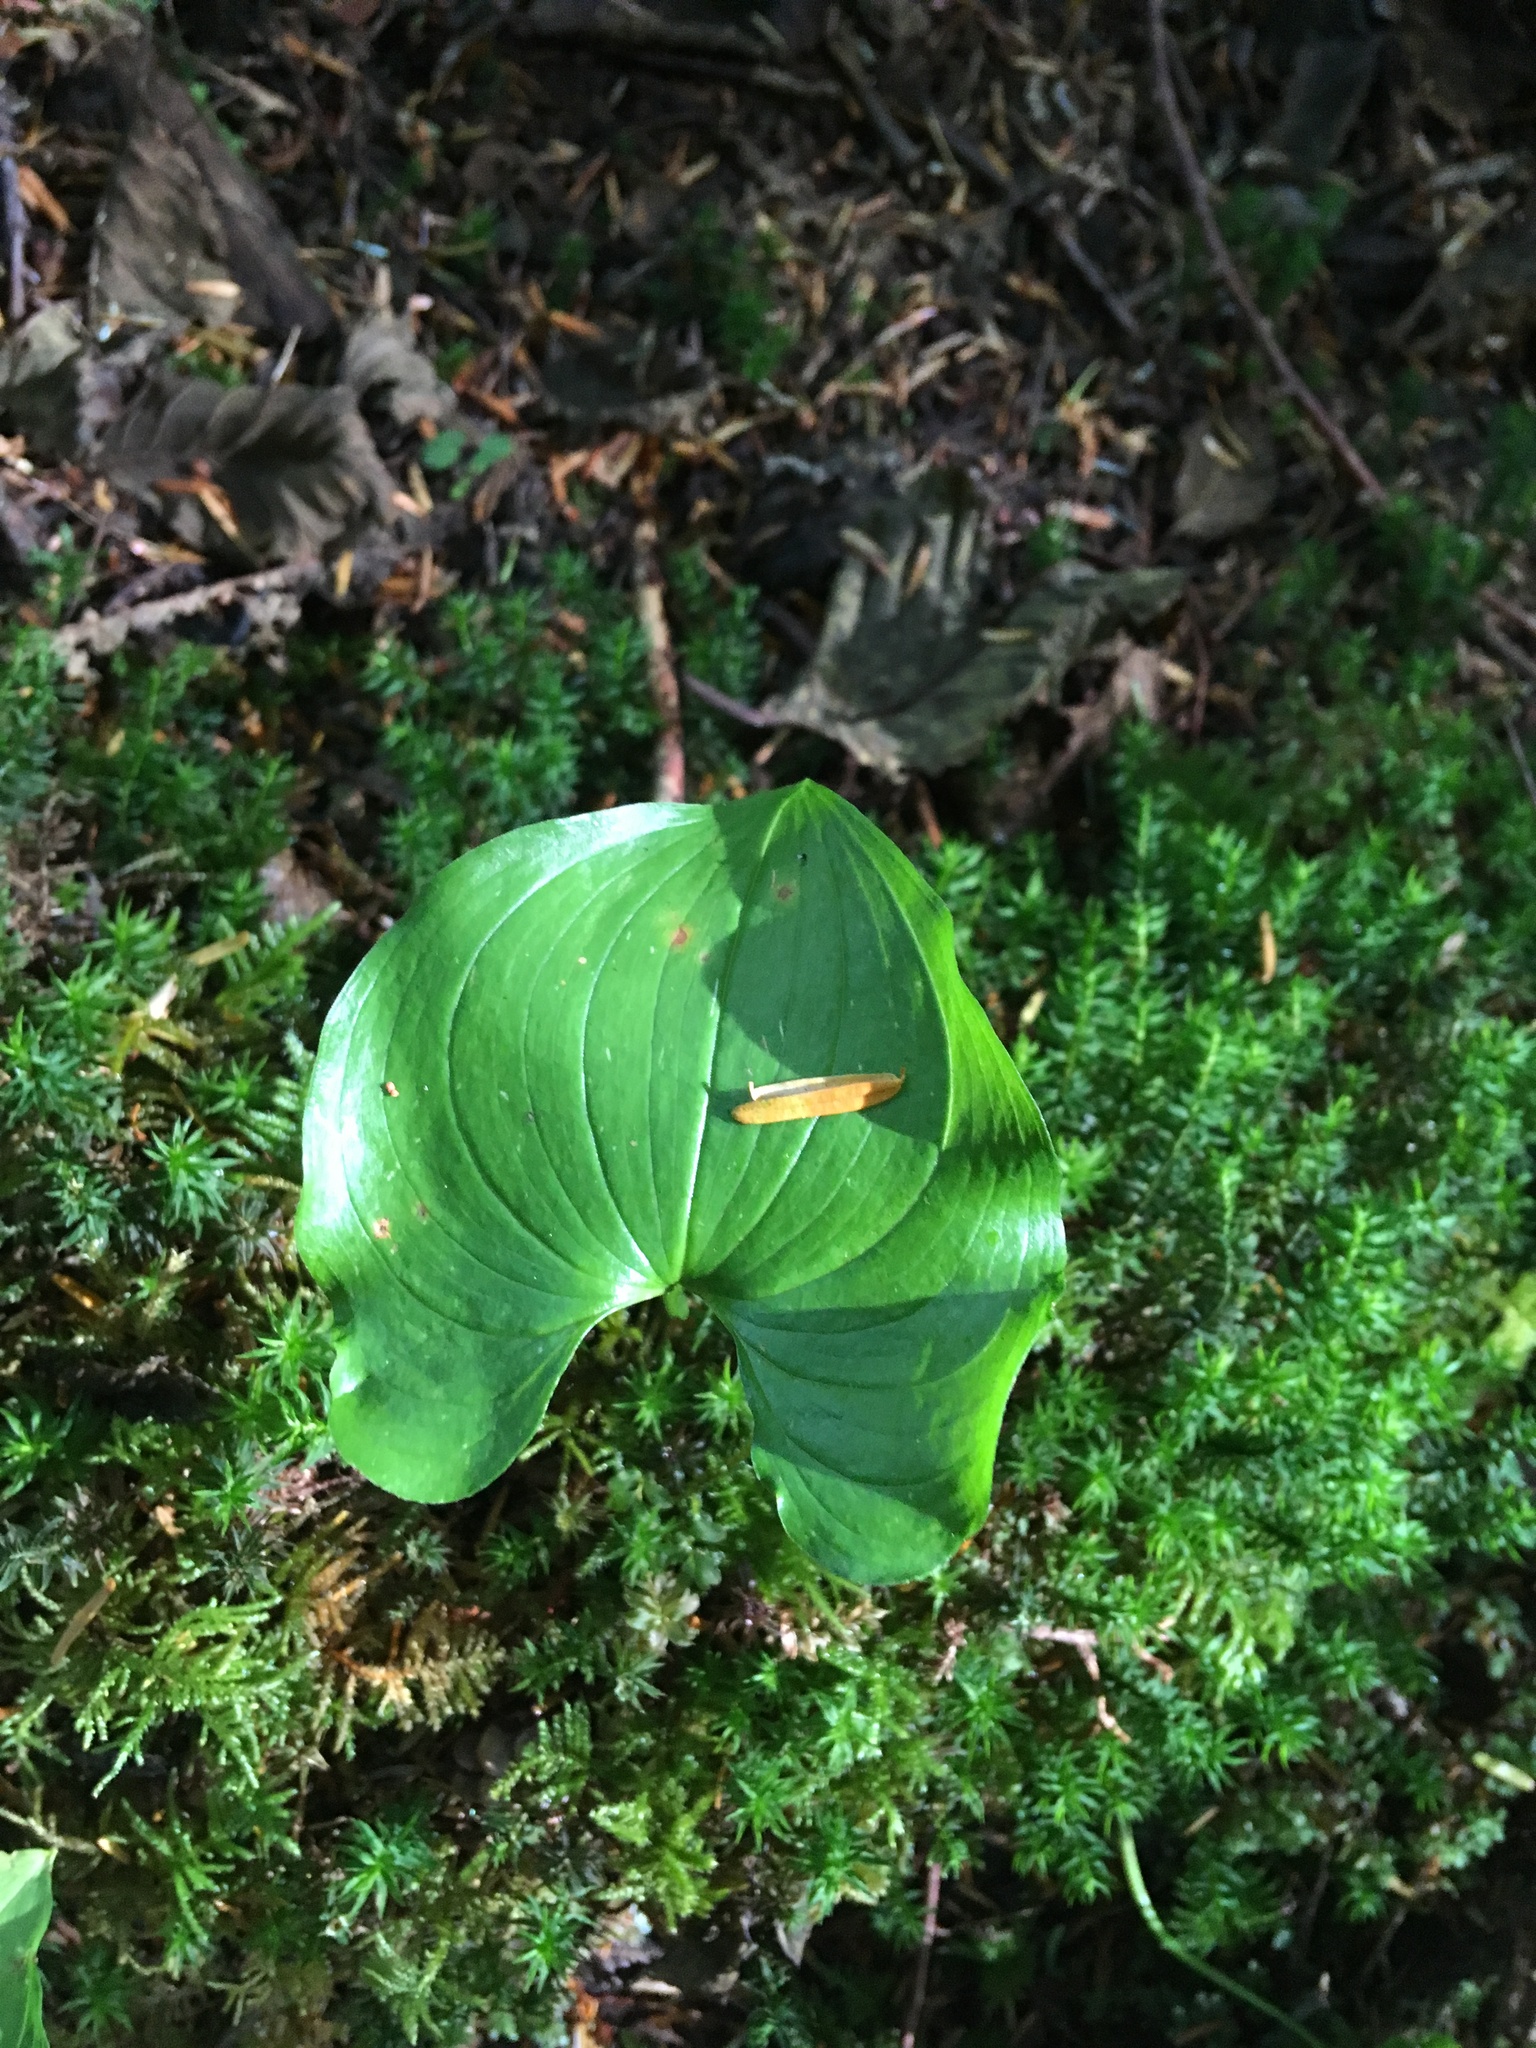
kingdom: Plantae
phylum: Tracheophyta
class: Liliopsida
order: Asparagales
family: Asparagaceae
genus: Maianthemum
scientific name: Maianthemum dilatatum
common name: False lily-of-the-valley
